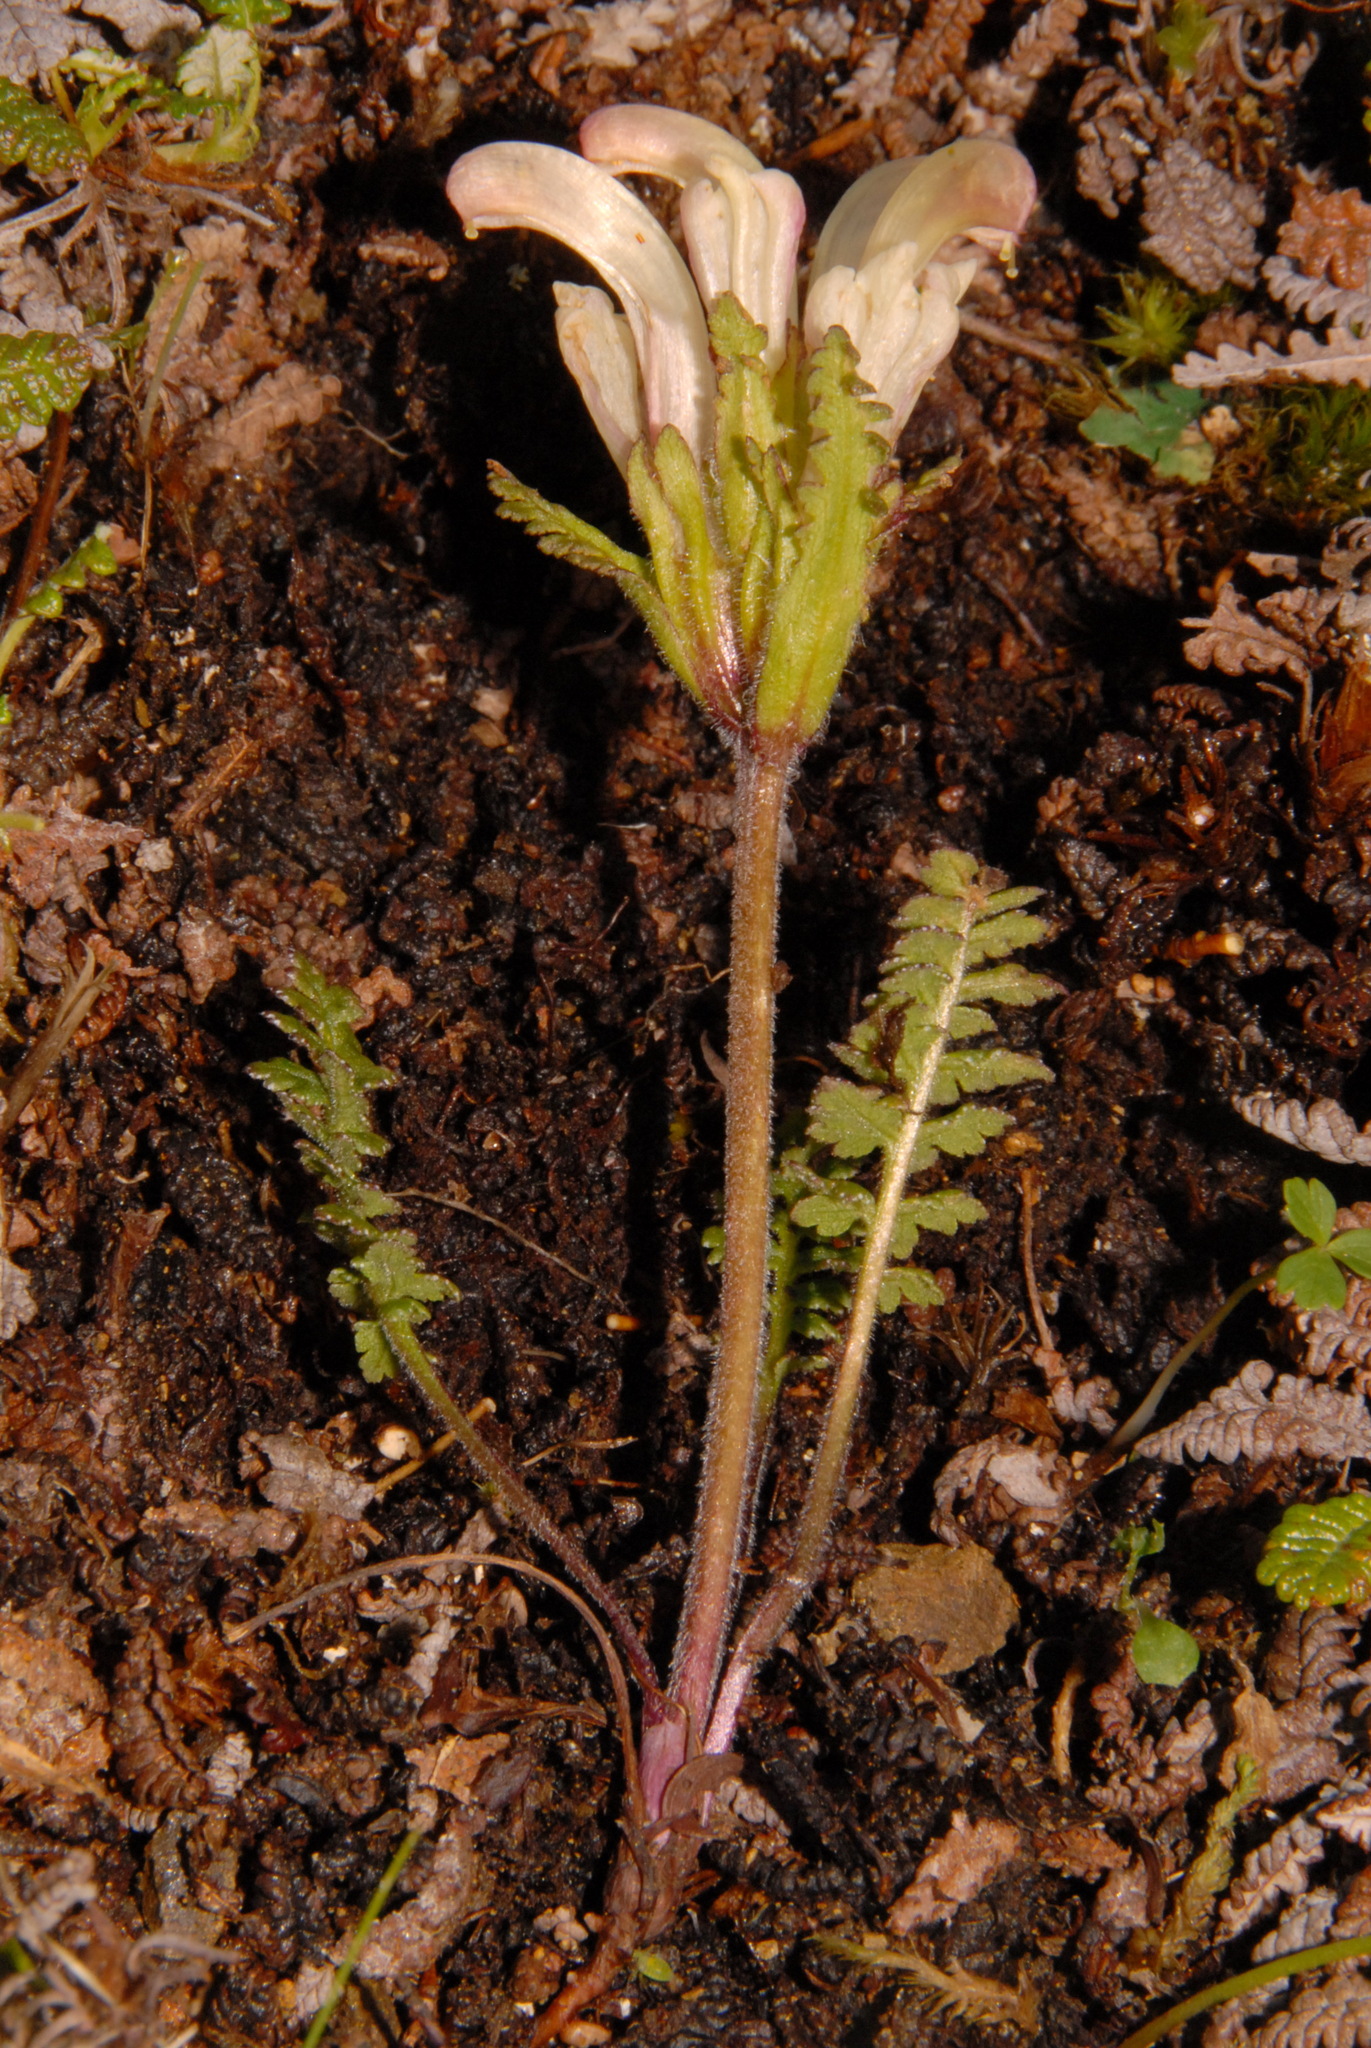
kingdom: Plantae
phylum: Tracheophyta
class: Magnoliopsida
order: Lamiales
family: Orobanchaceae
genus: Pedicularis
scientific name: Pedicularis capitata
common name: Capitate lousewort
